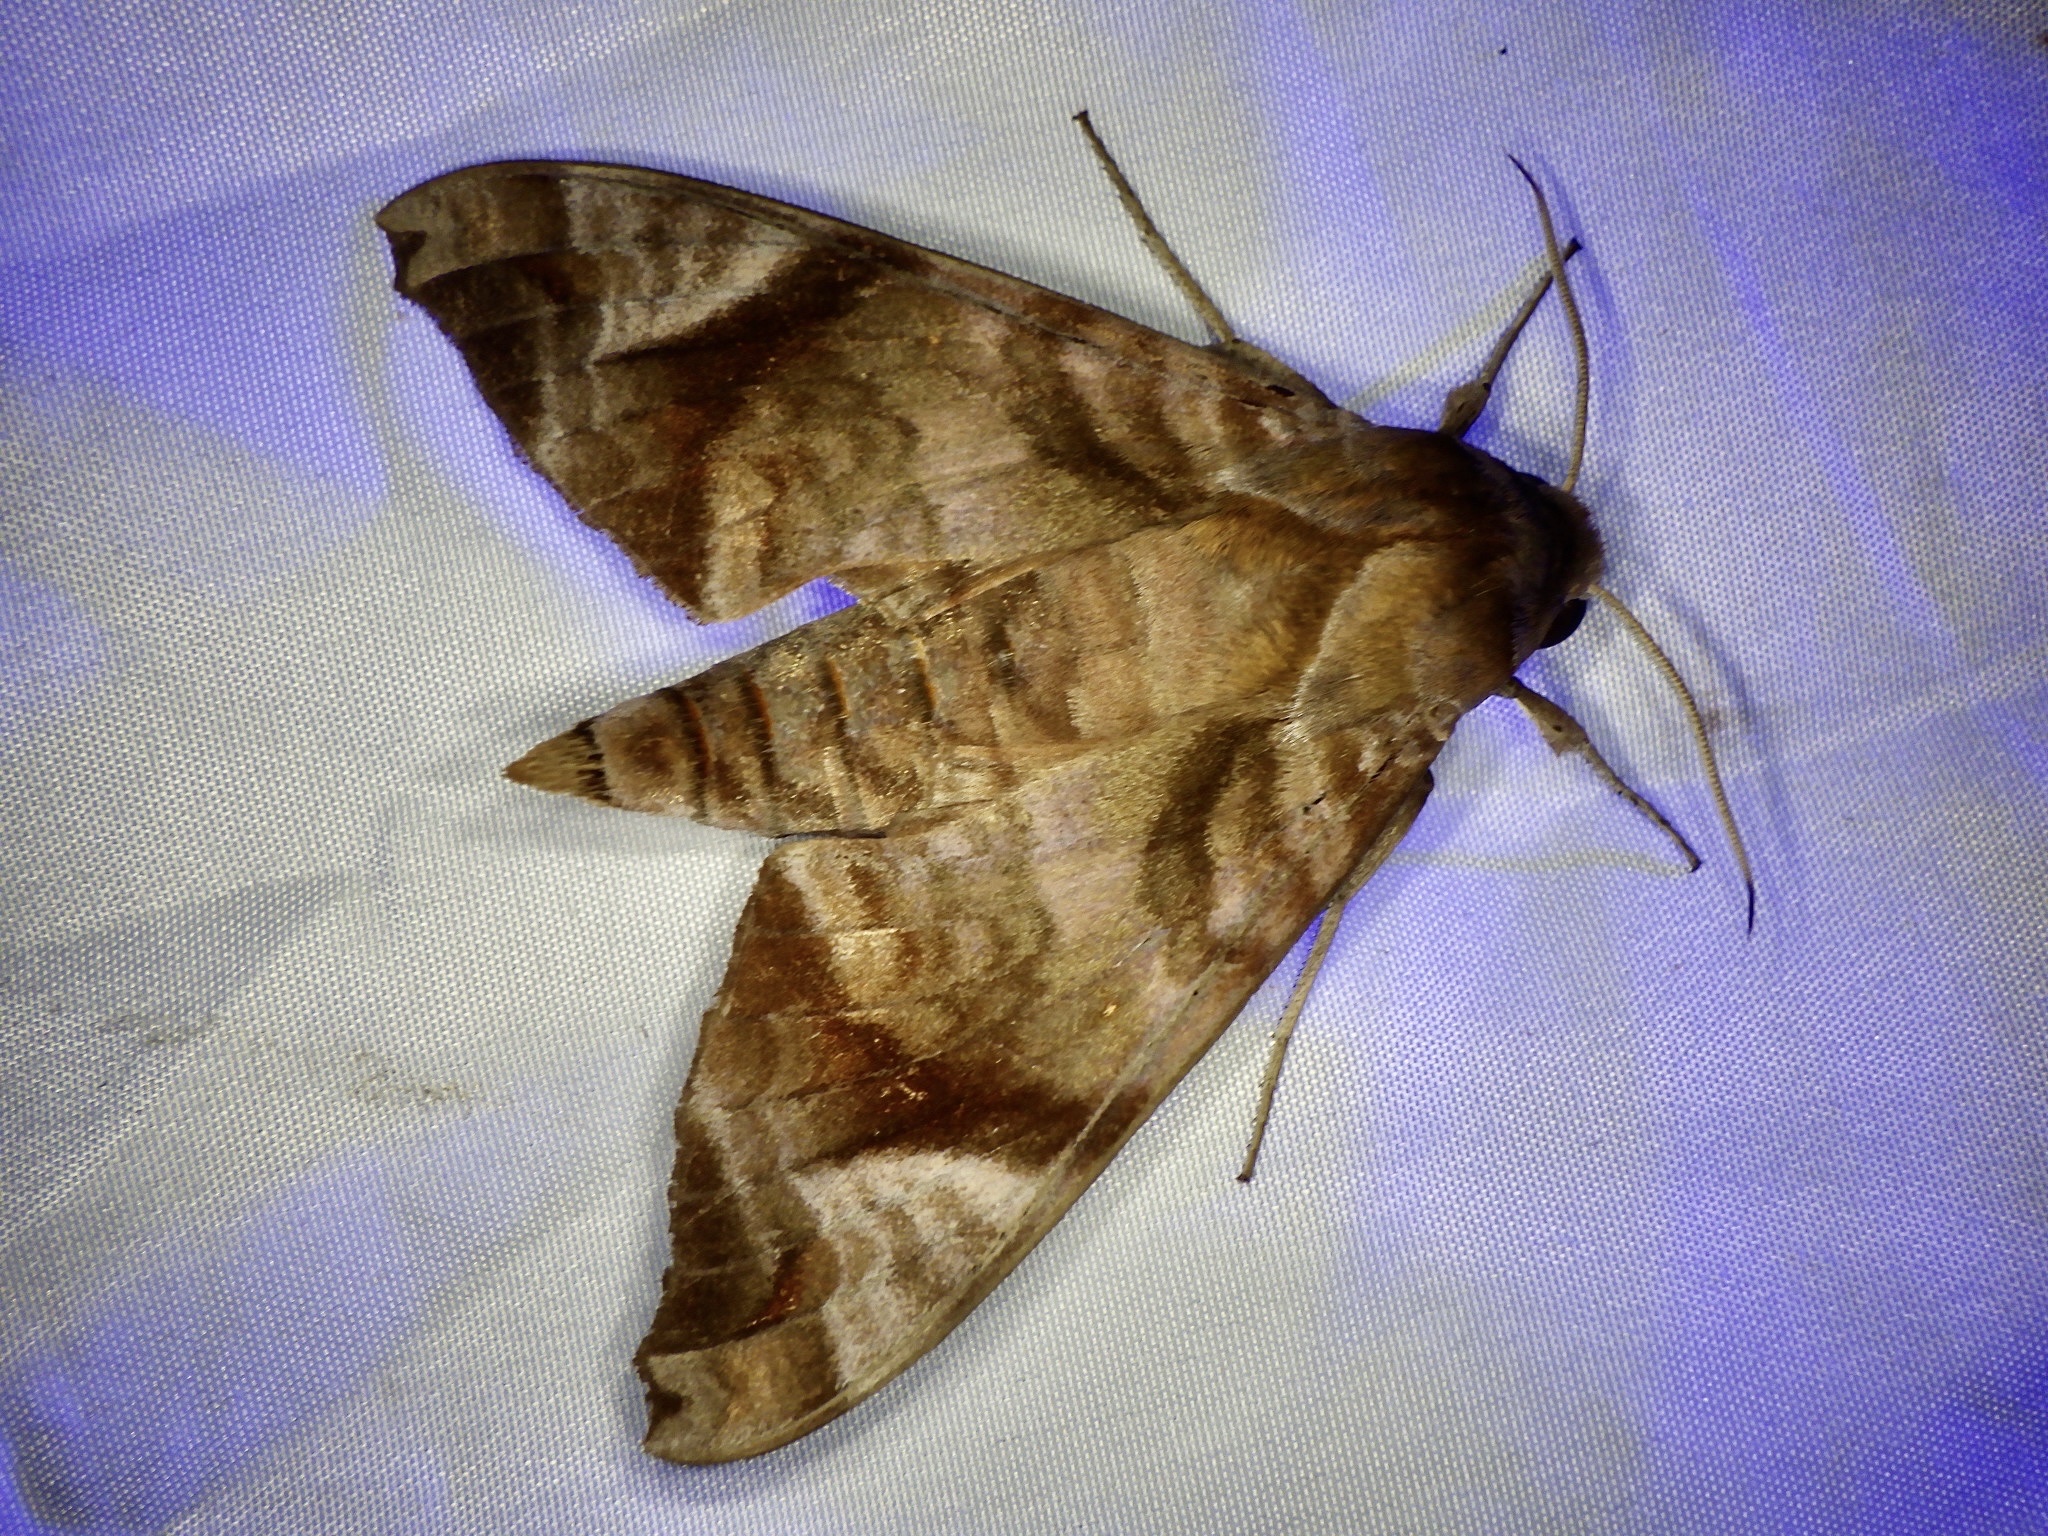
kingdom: Animalia
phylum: Arthropoda
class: Insecta
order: Lepidoptera
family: Sphingidae
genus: Acosmeryx
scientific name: Acosmeryx castanea
